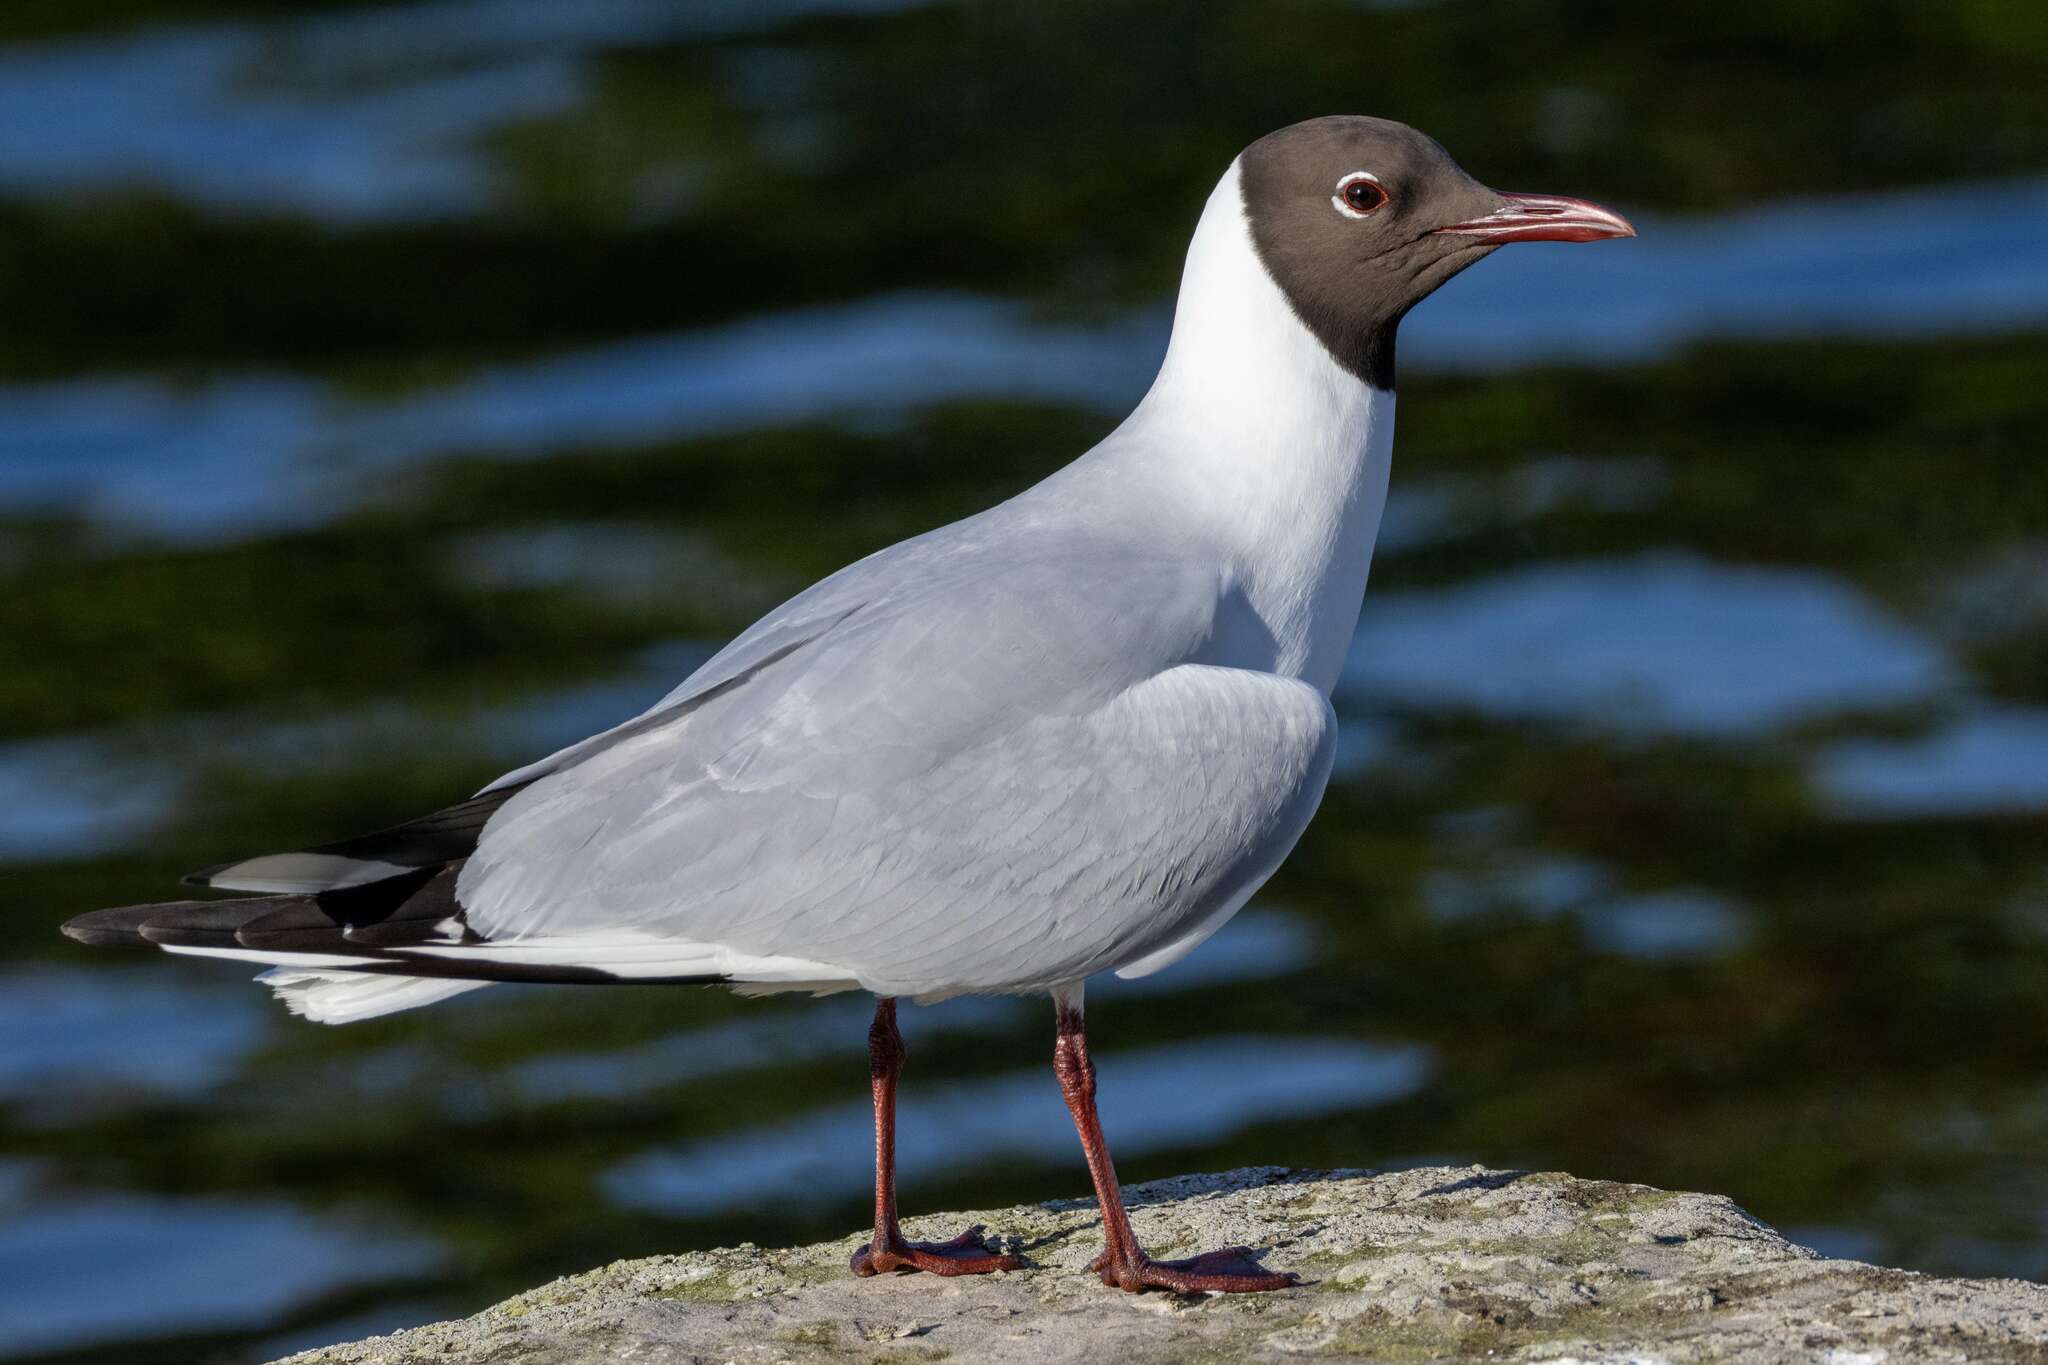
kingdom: Animalia
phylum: Chordata
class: Aves
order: Charadriiformes
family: Laridae
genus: Chroicocephalus
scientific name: Chroicocephalus ridibundus
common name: Black-headed gull
